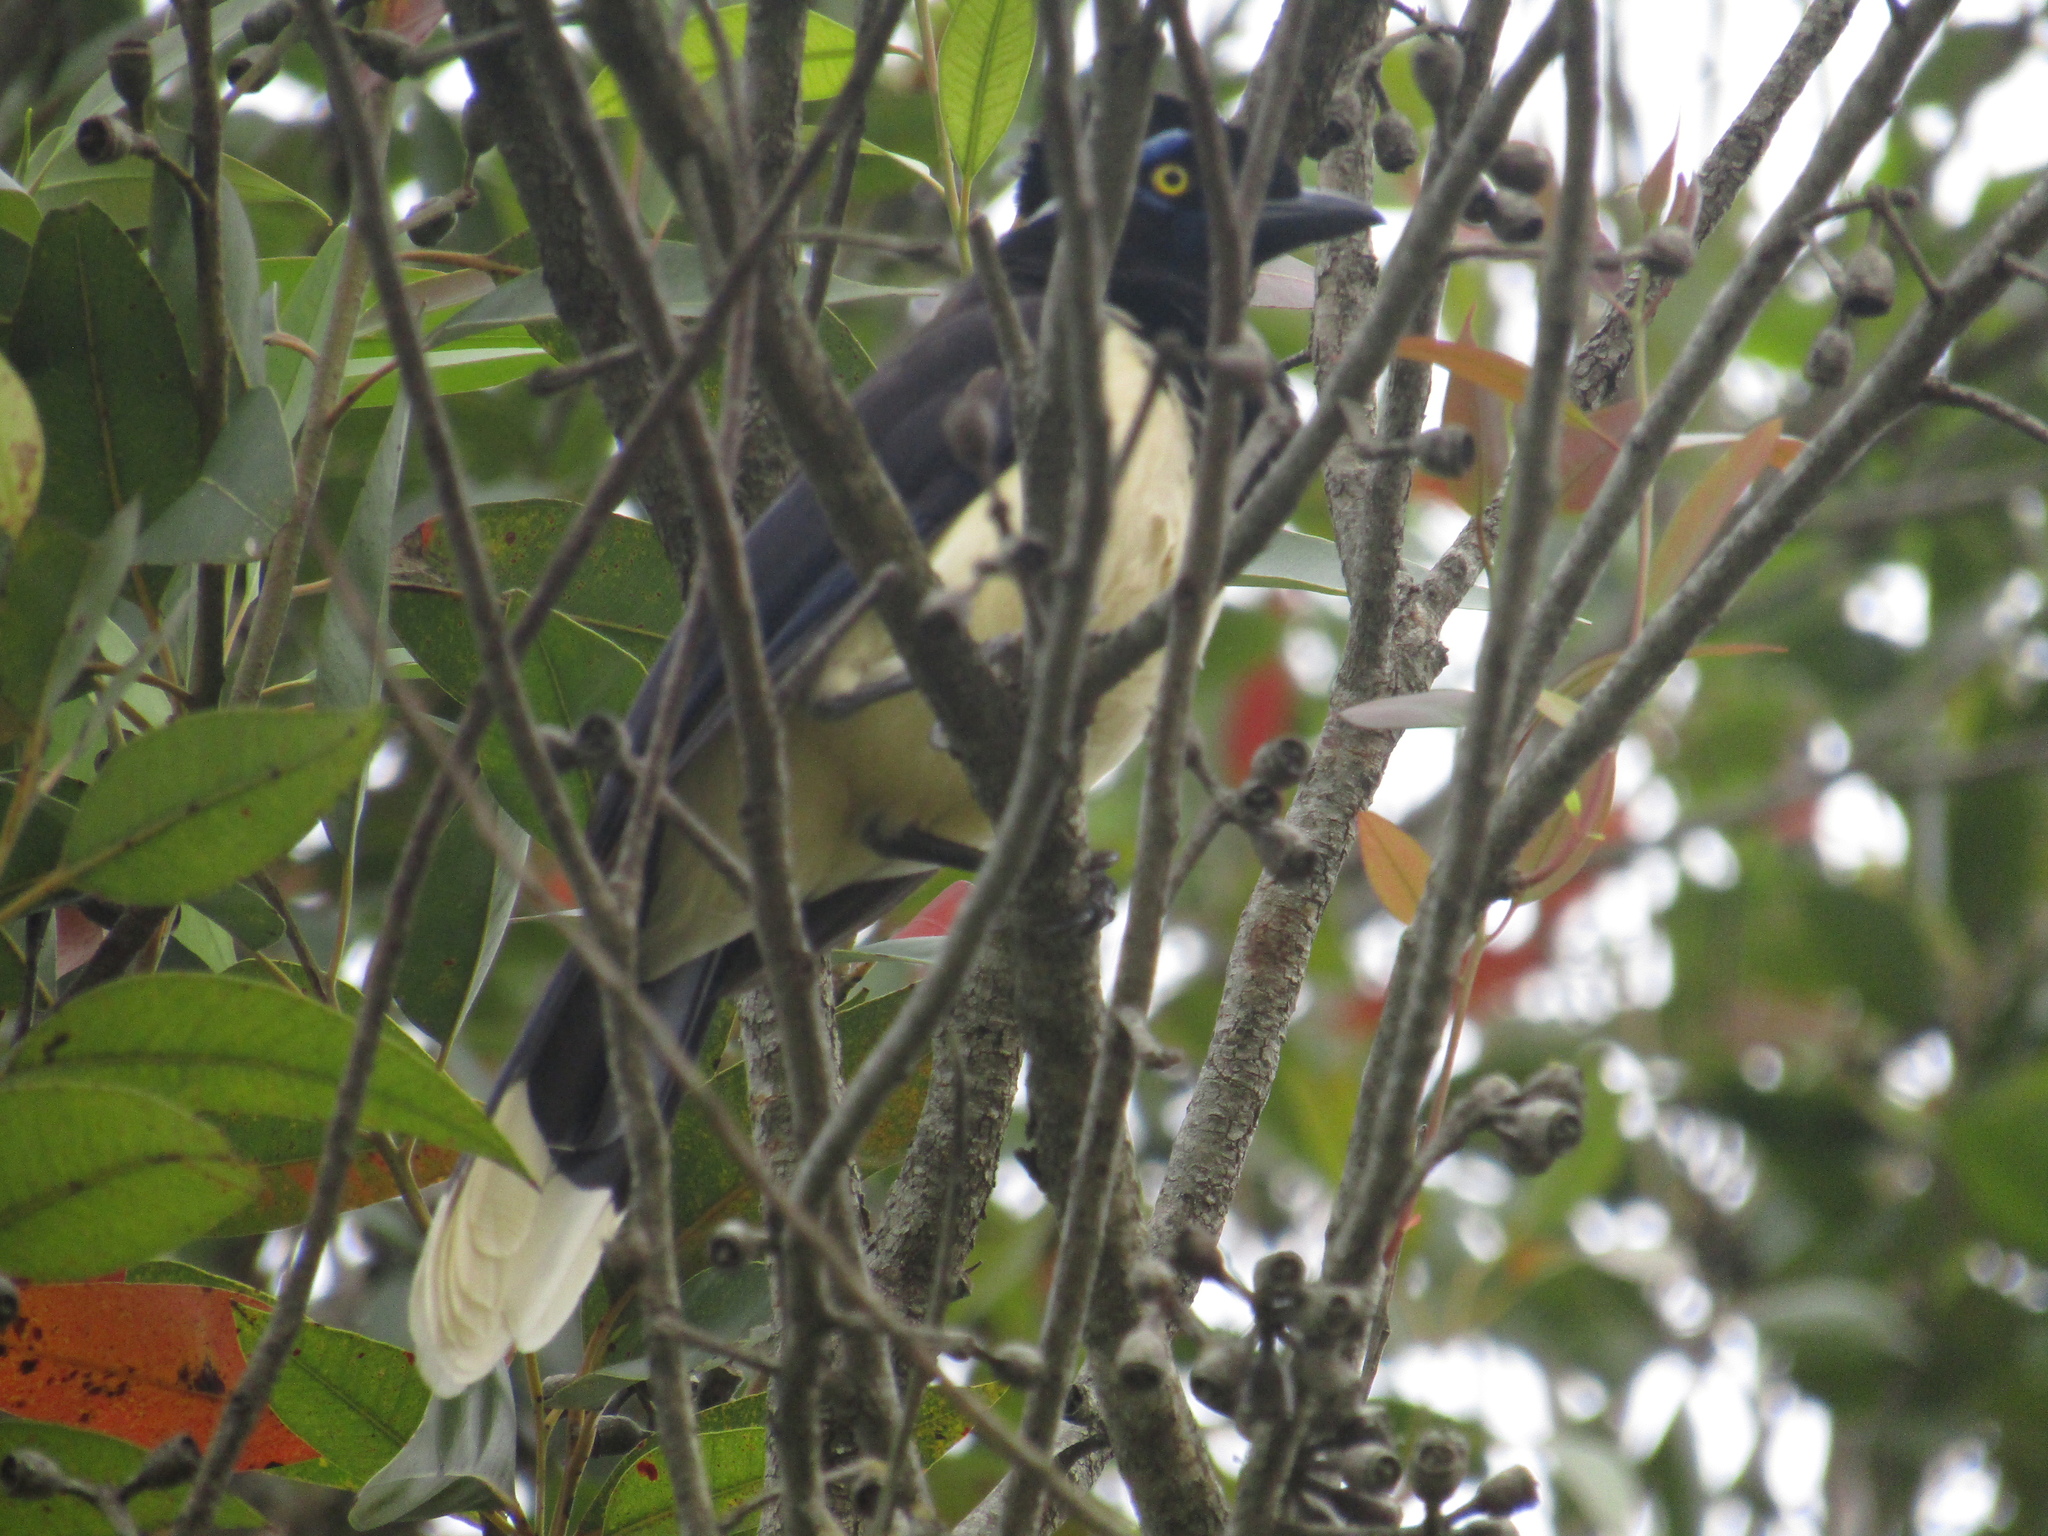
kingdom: Animalia
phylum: Chordata
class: Aves
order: Passeriformes
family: Corvidae
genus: Cyanocorax
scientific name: Cyanocorax chrysops
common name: Plush-crested jay
